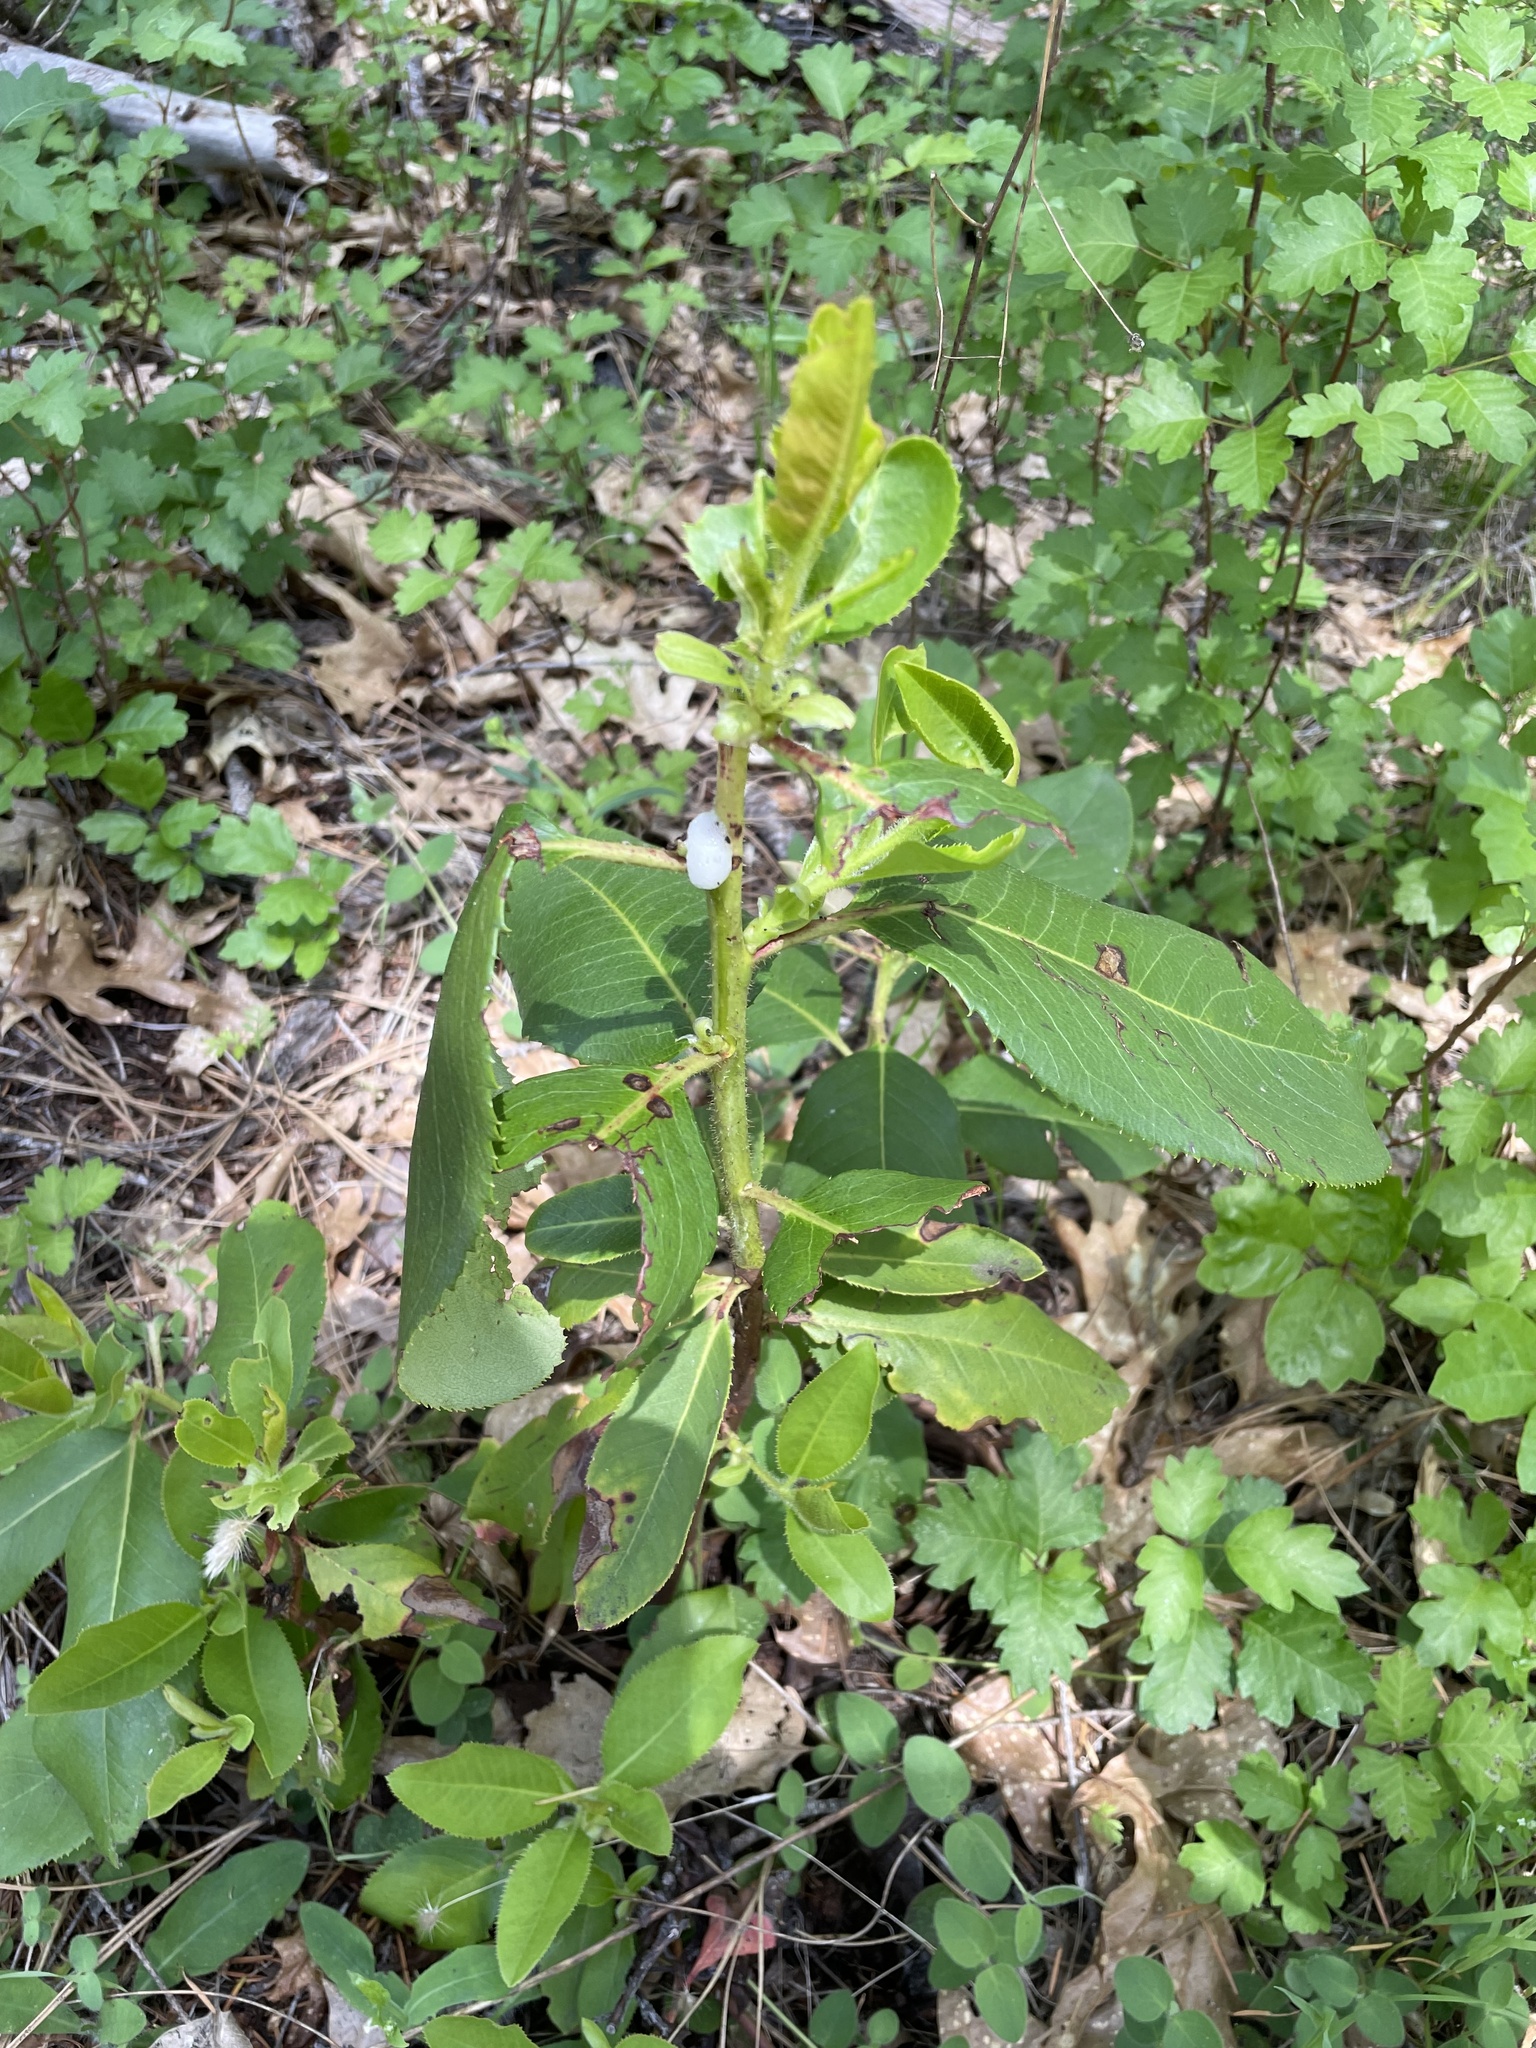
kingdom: Plantae
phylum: Tracheophyta
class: Magnoliopsida
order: Ericales
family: Ericaceae
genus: Arbutus
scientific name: Arbutus menziesii
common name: Pacific madrone
